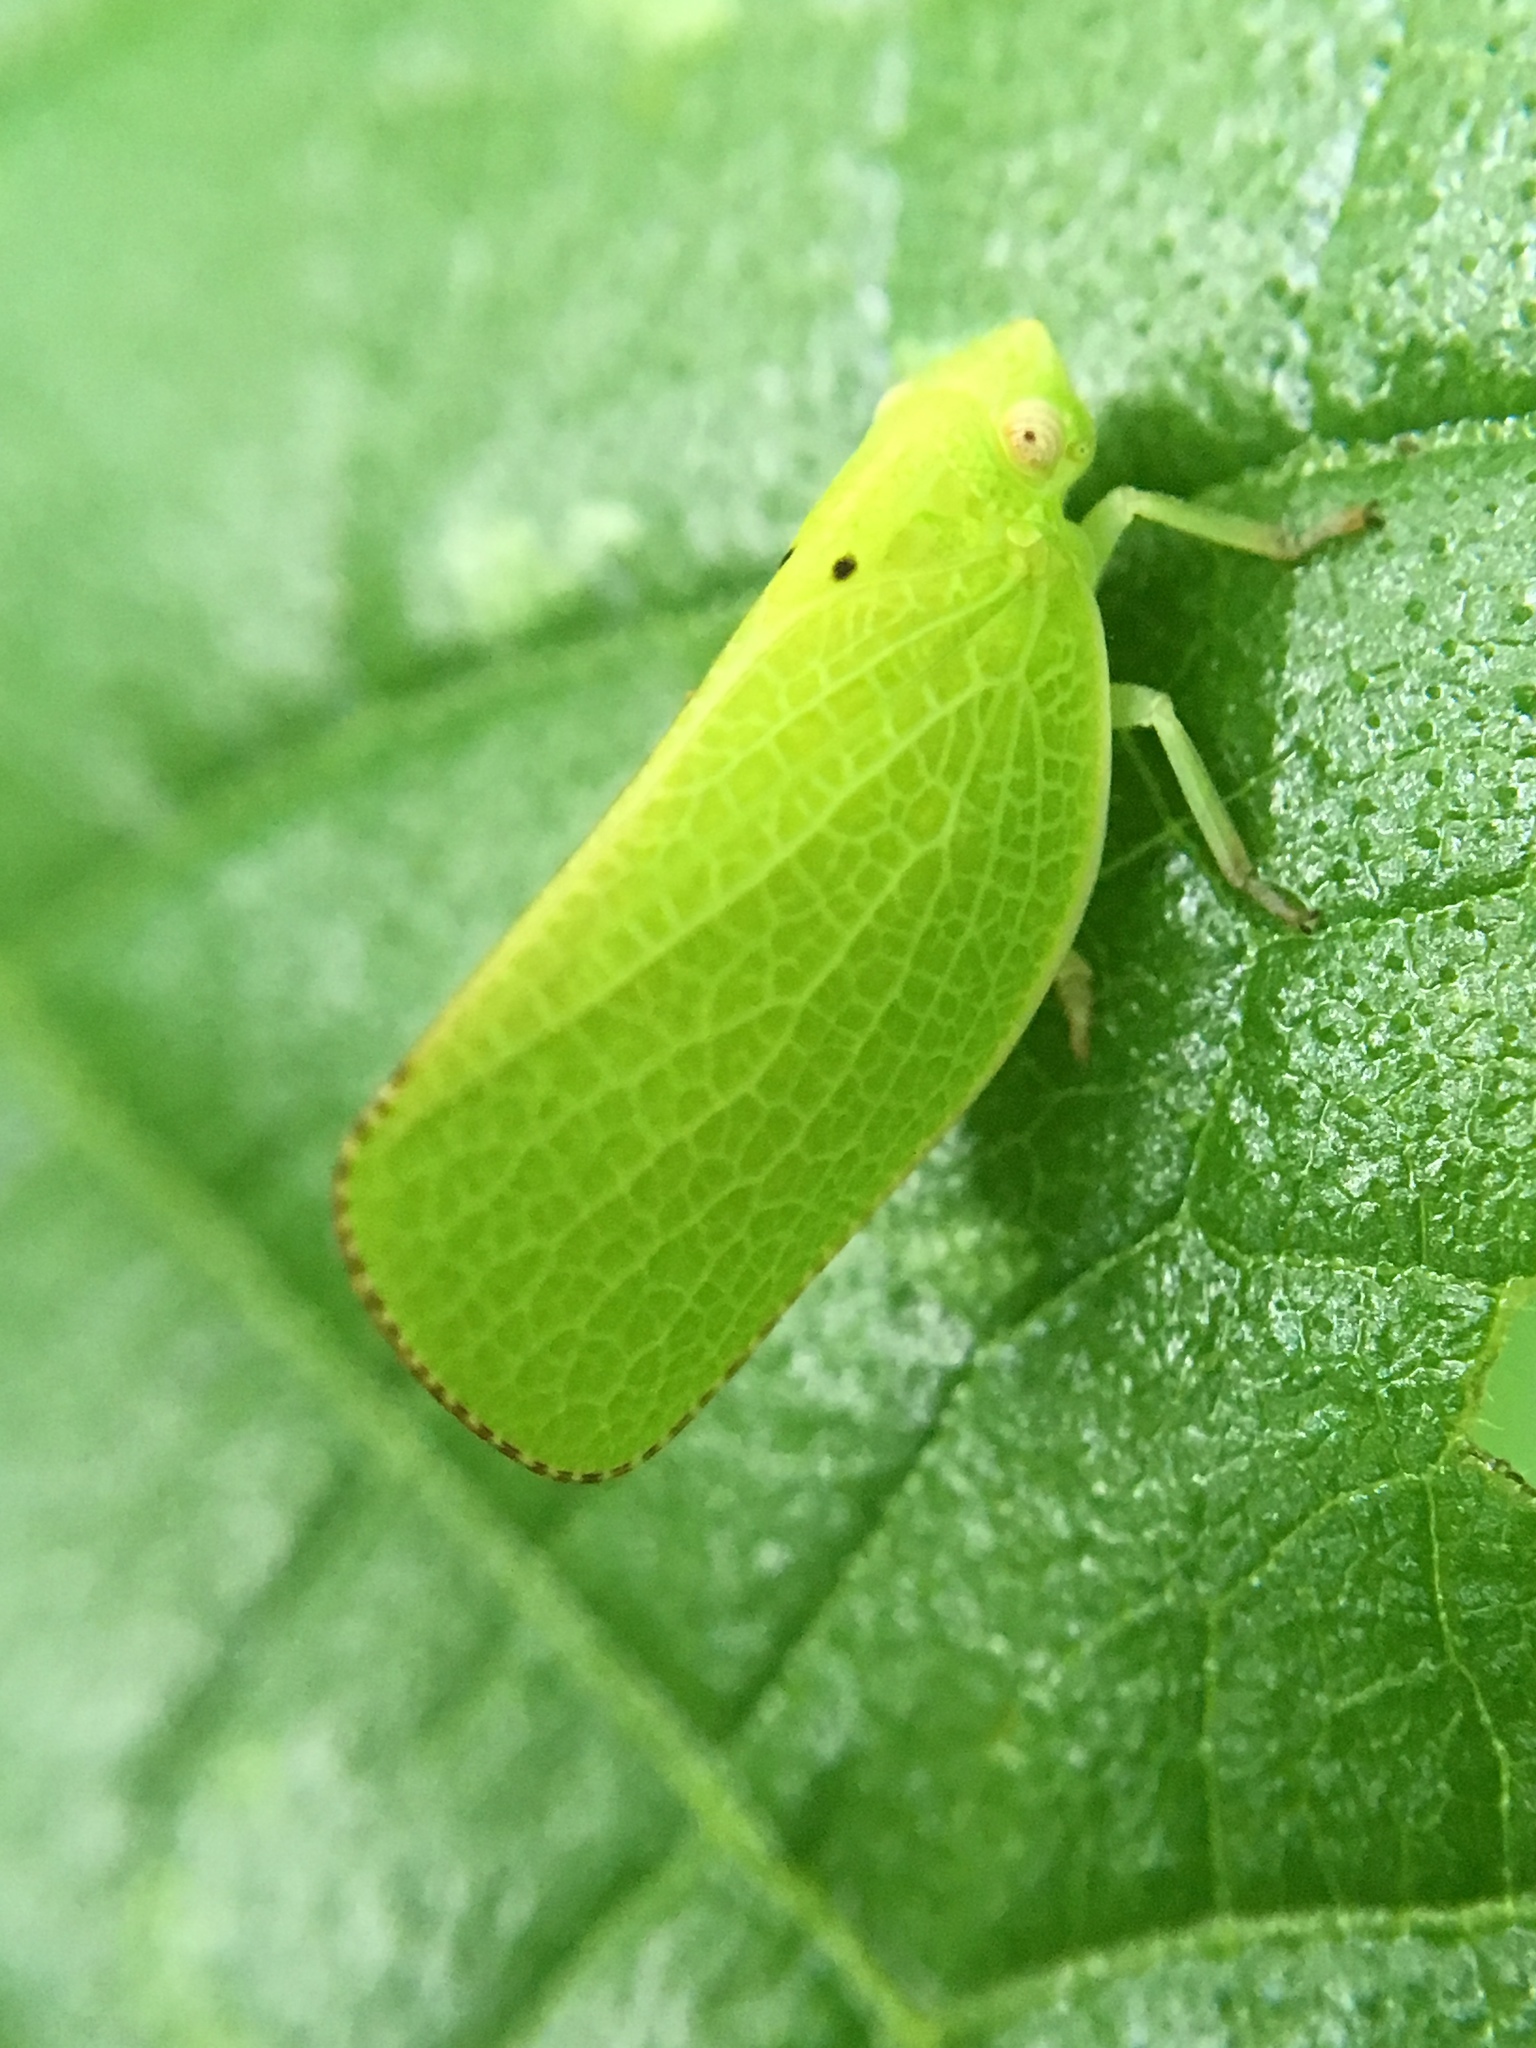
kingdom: Animalia
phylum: Arthropoda
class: Insecta
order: Hemiptera
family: Acanaloniidae
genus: Acanalonia
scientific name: Acanalonia conica
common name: Green cone-headed planthopper
